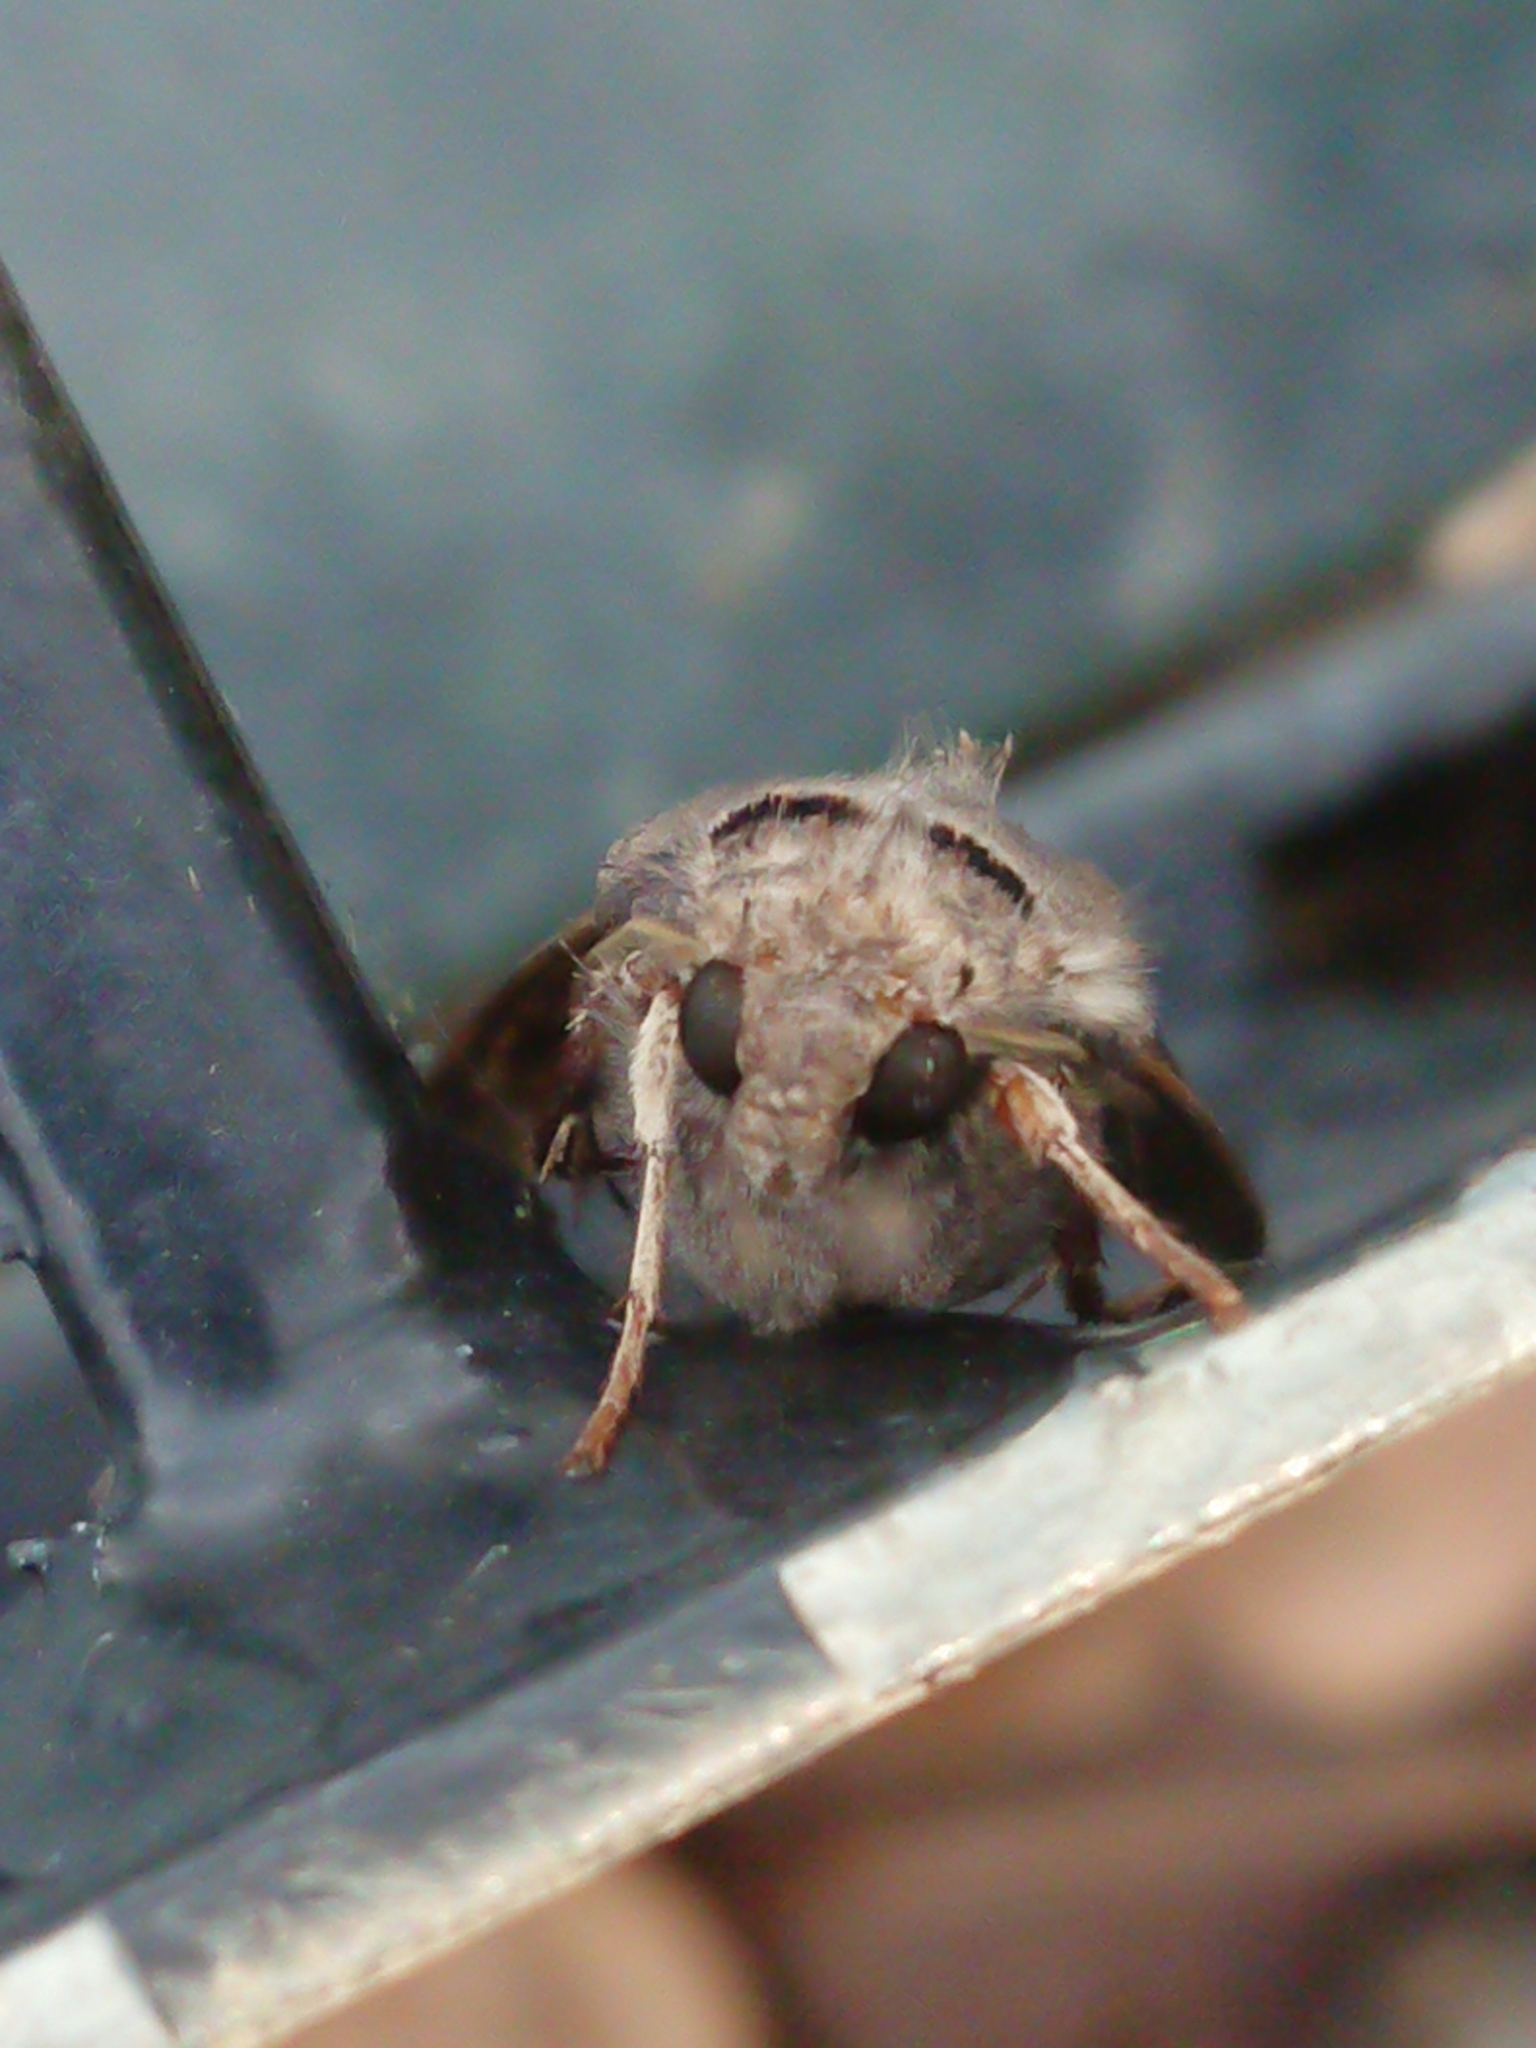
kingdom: Animalia
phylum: Arthropoda
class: Insecta
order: Lepidoptera
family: Noctuidae
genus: Agrotis
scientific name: Agrotis ipsilon
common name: Dark sword-grass
